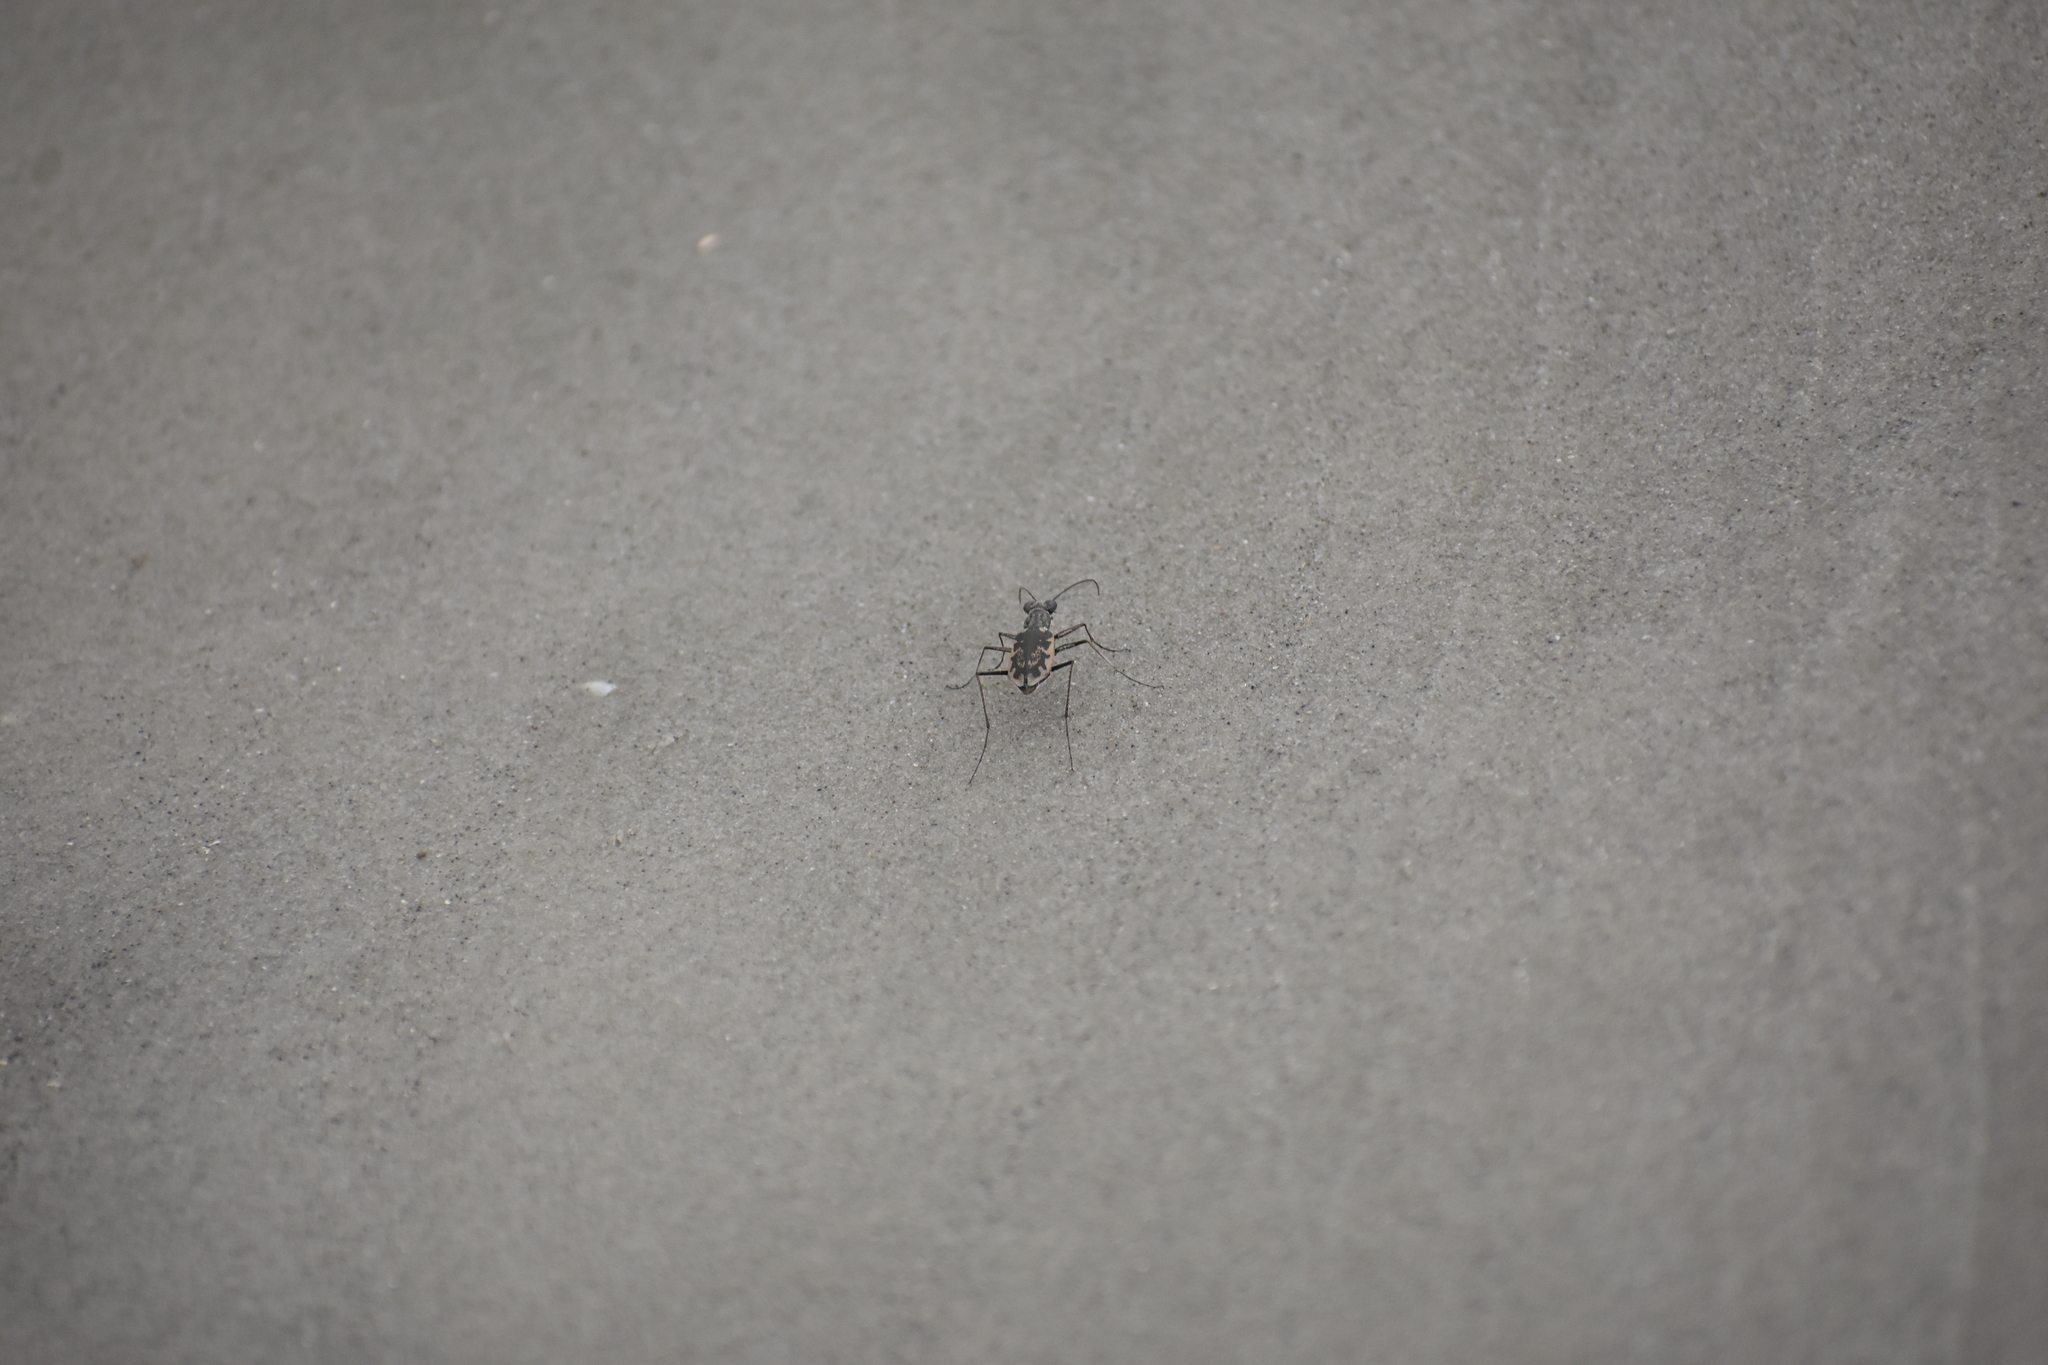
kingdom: Animalia
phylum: Arthropoda
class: Insecta
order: Coleoptera
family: Carabidae
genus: Ellipsoptera
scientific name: Ellipsoptera marginata
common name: Margined tiger beetle
